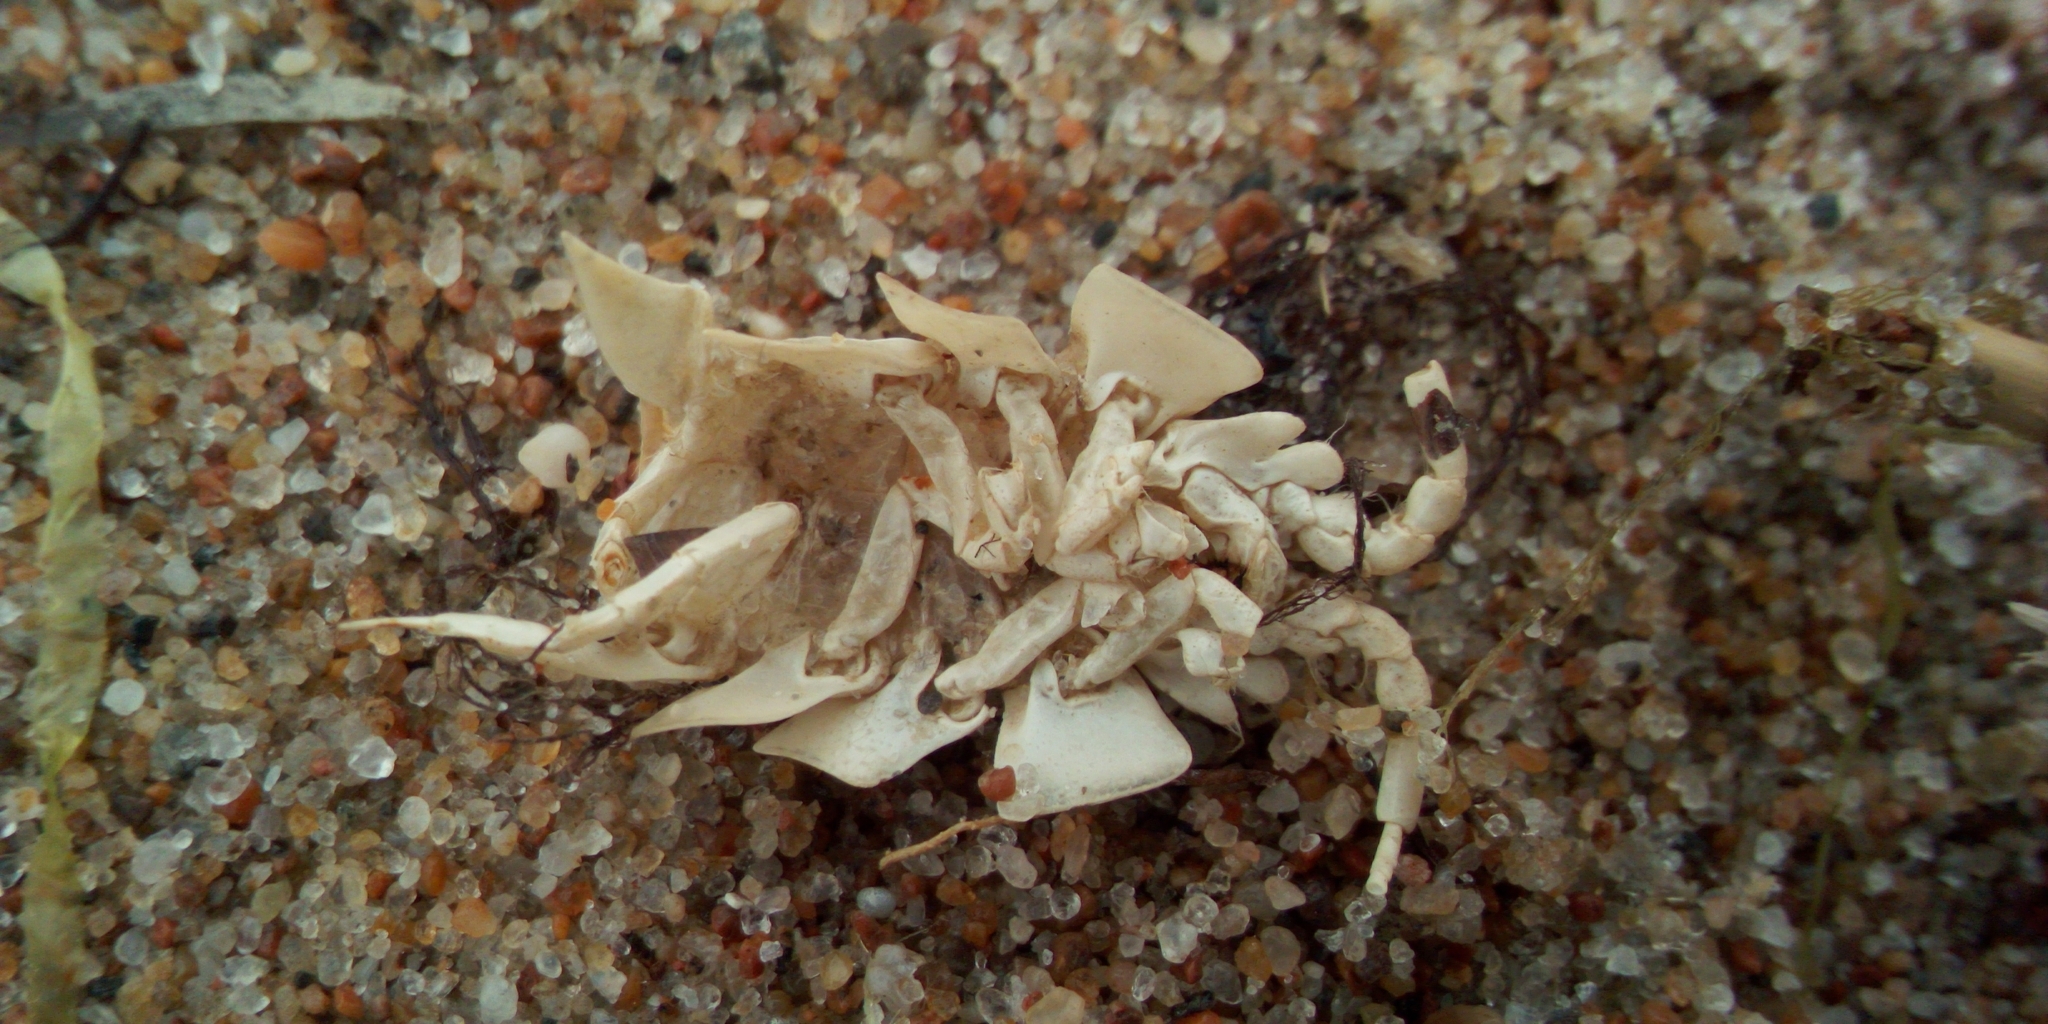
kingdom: Animalia
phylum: Arthropoda
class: Malacostraca
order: Isopoda
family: Chaetiliidae
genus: Saduria
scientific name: Saduria entomon
